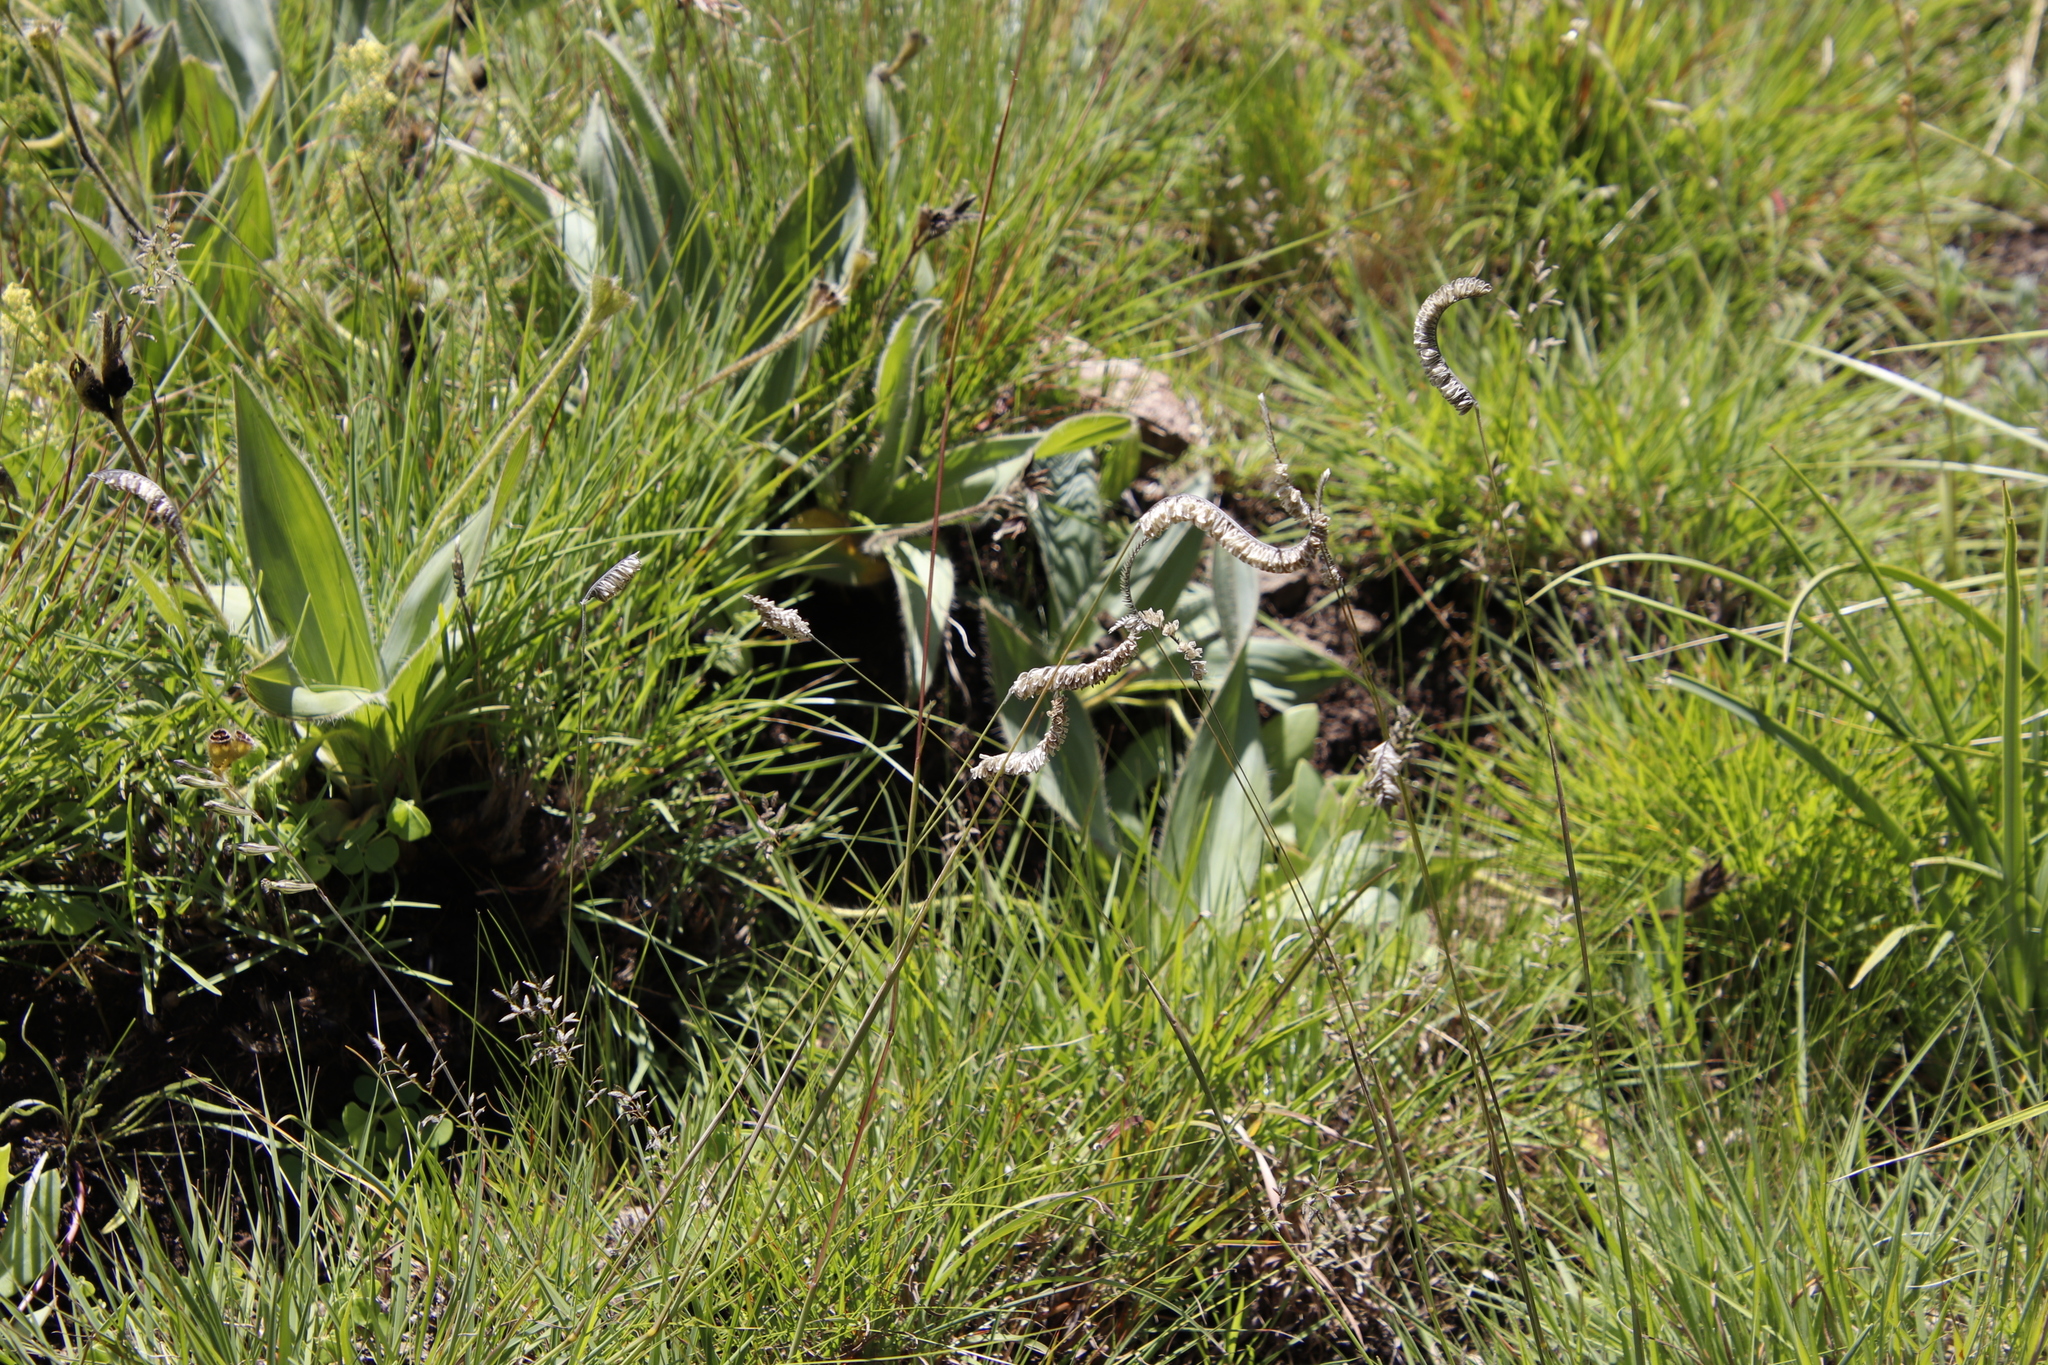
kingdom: Plantae
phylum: Tracheophyta
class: Liliopsida
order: Poales
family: Poaceae
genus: Harpochloa
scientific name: Harpochloa falx
